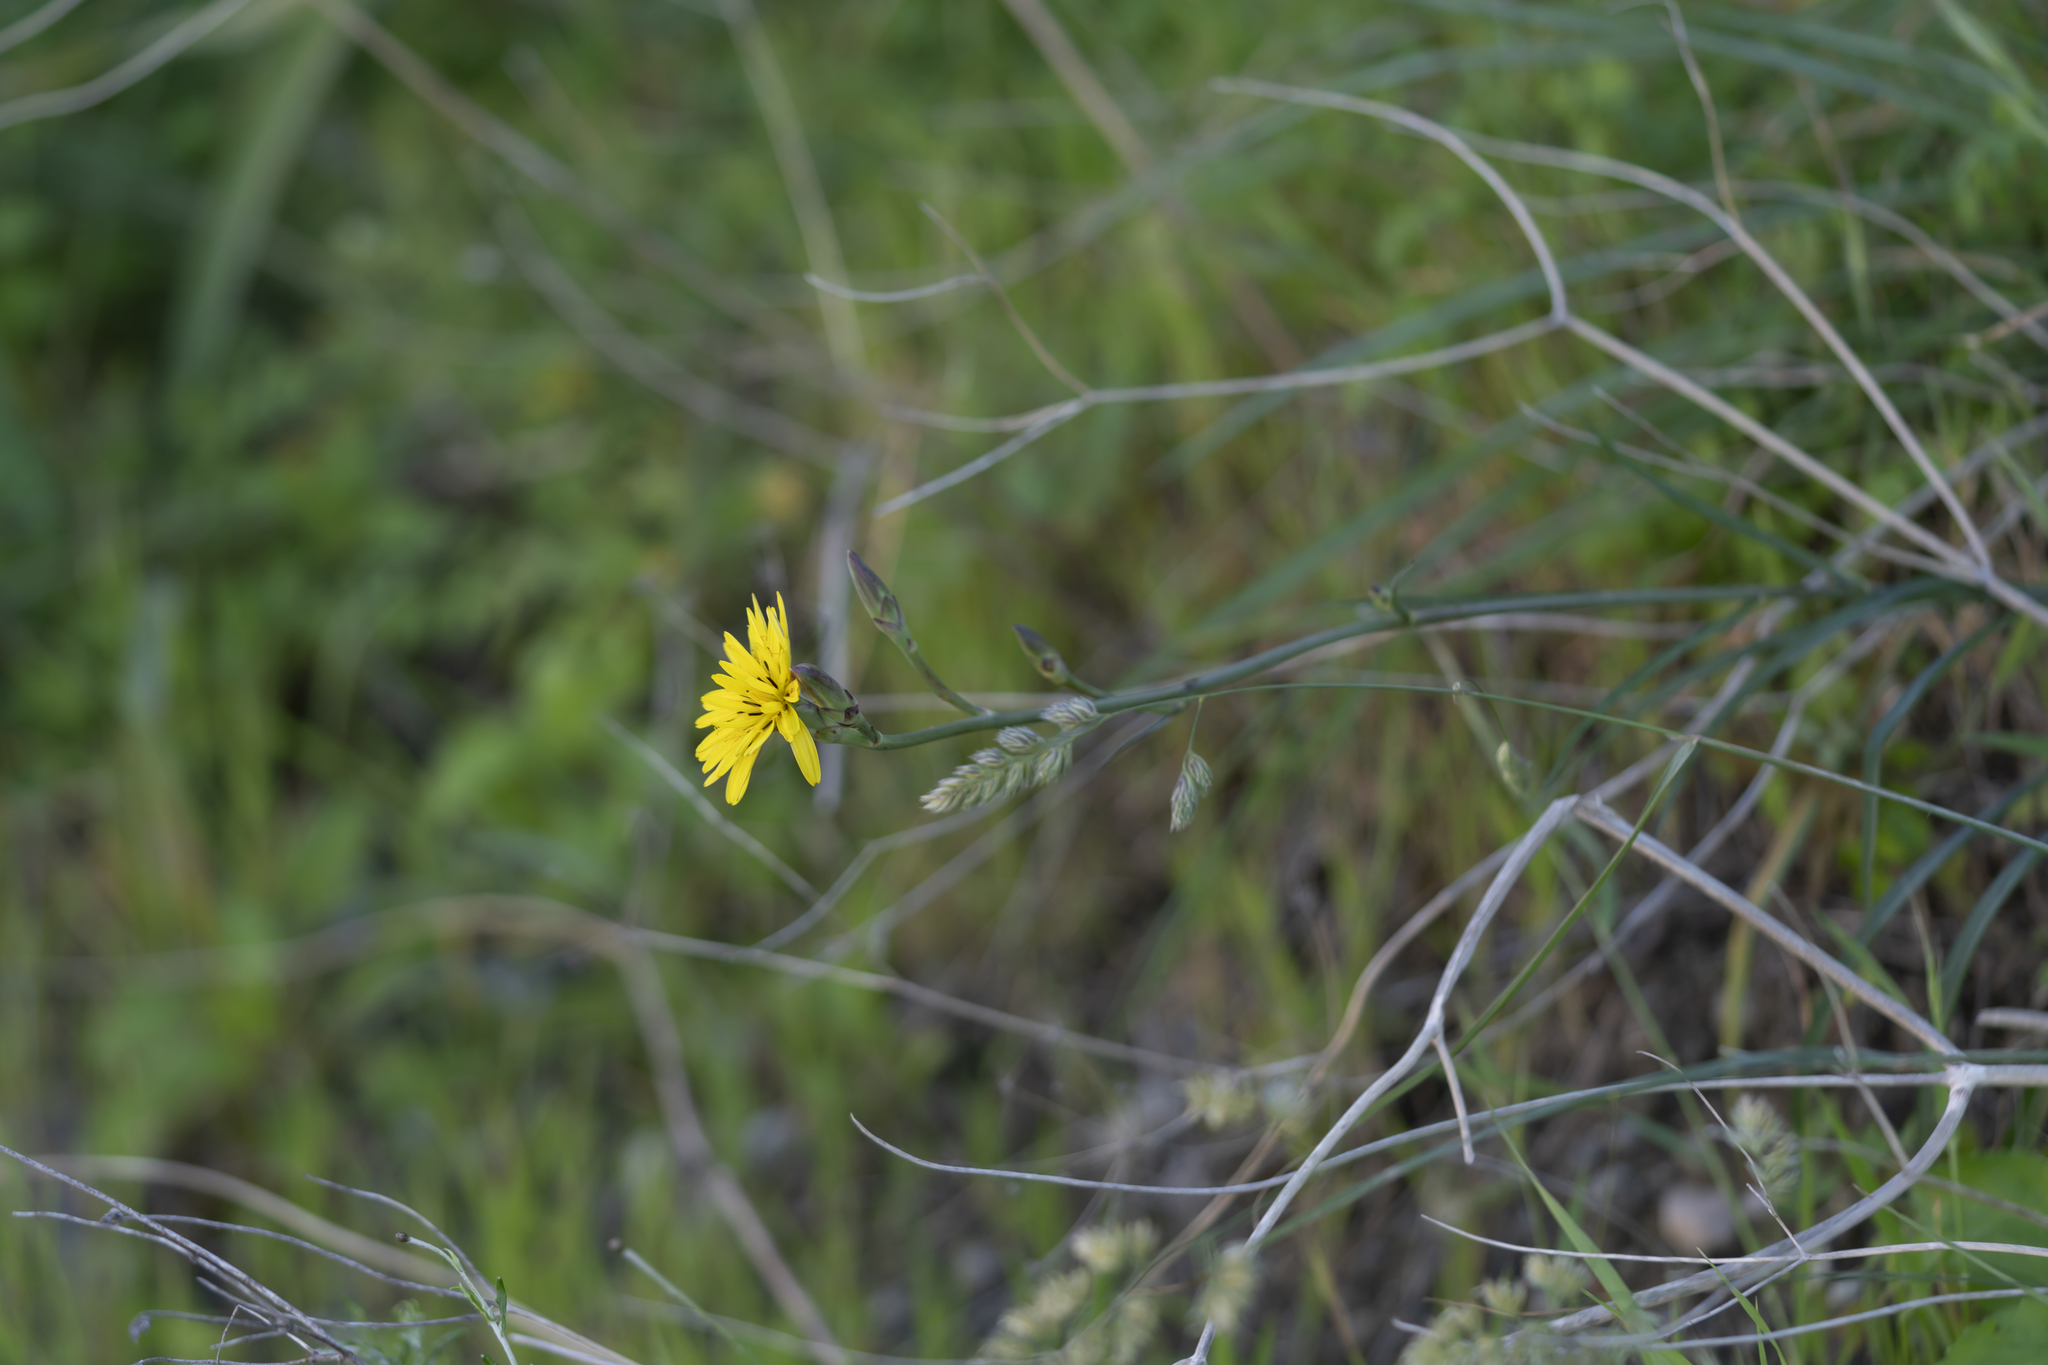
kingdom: Plantae
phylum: Tracheophyta
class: Magnoliopsida
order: Asterales
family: Asteraceae
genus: Candollea
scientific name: Candollea elata
